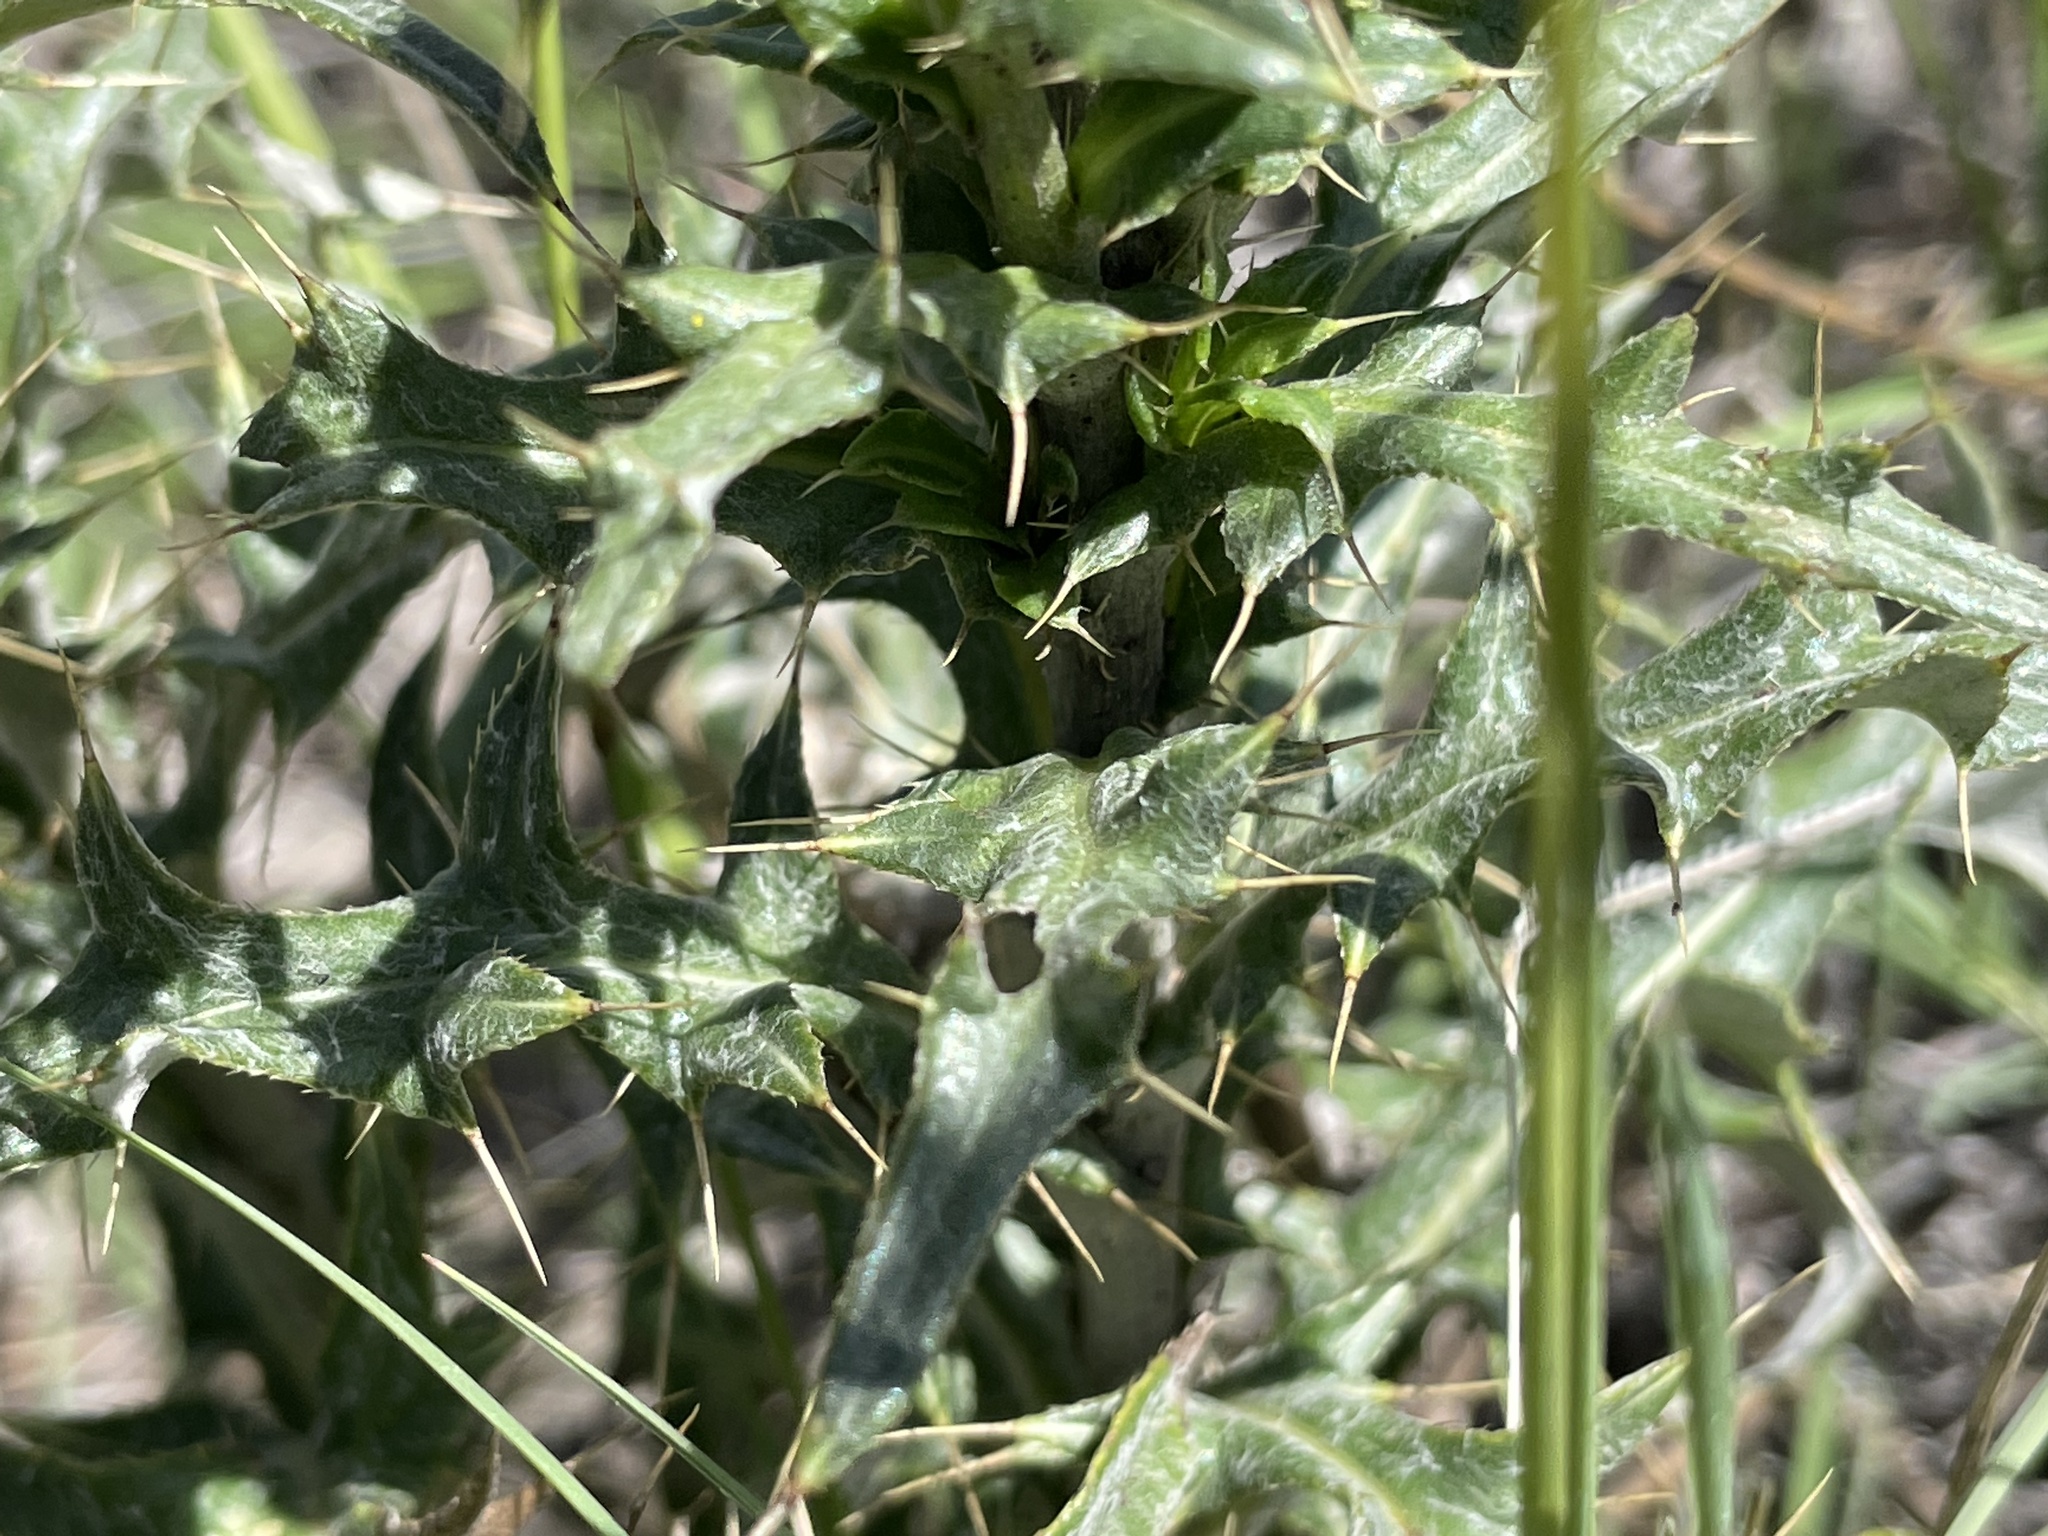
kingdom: Plantae
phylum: Tracheophyta
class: Magnoliopsida
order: Asterales
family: Asteraceae
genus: Cirsium
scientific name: Cirsium wheeleri
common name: Wheeler's thistle
